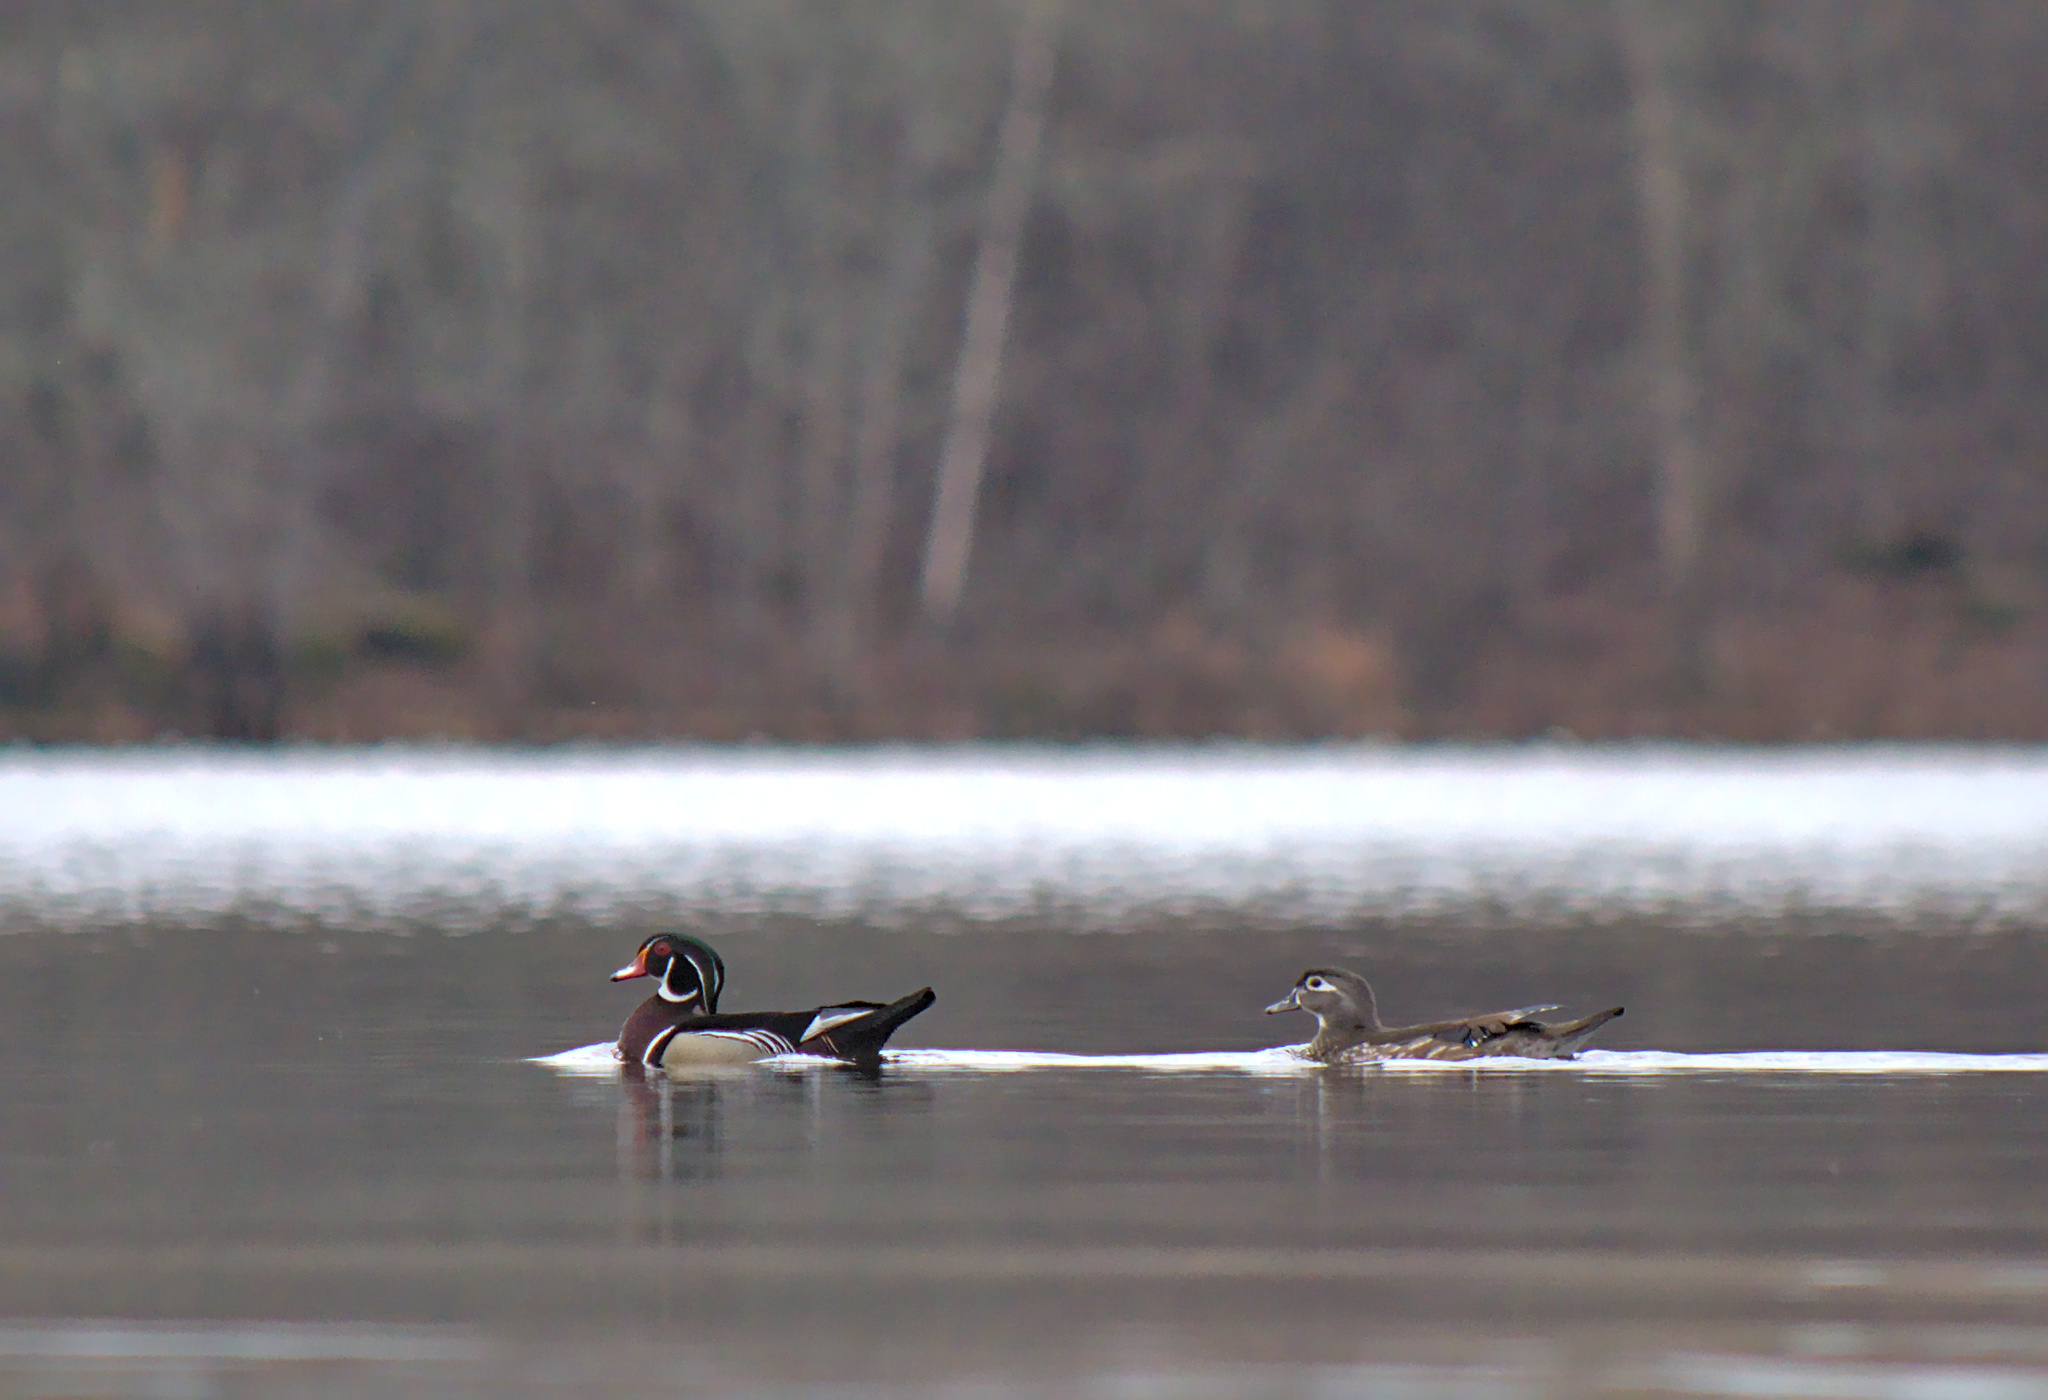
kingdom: Animalia
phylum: Chordata
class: Aves
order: Anseriformes
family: Anatidae
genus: Aix
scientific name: Aix sponsa
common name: Wood duck
